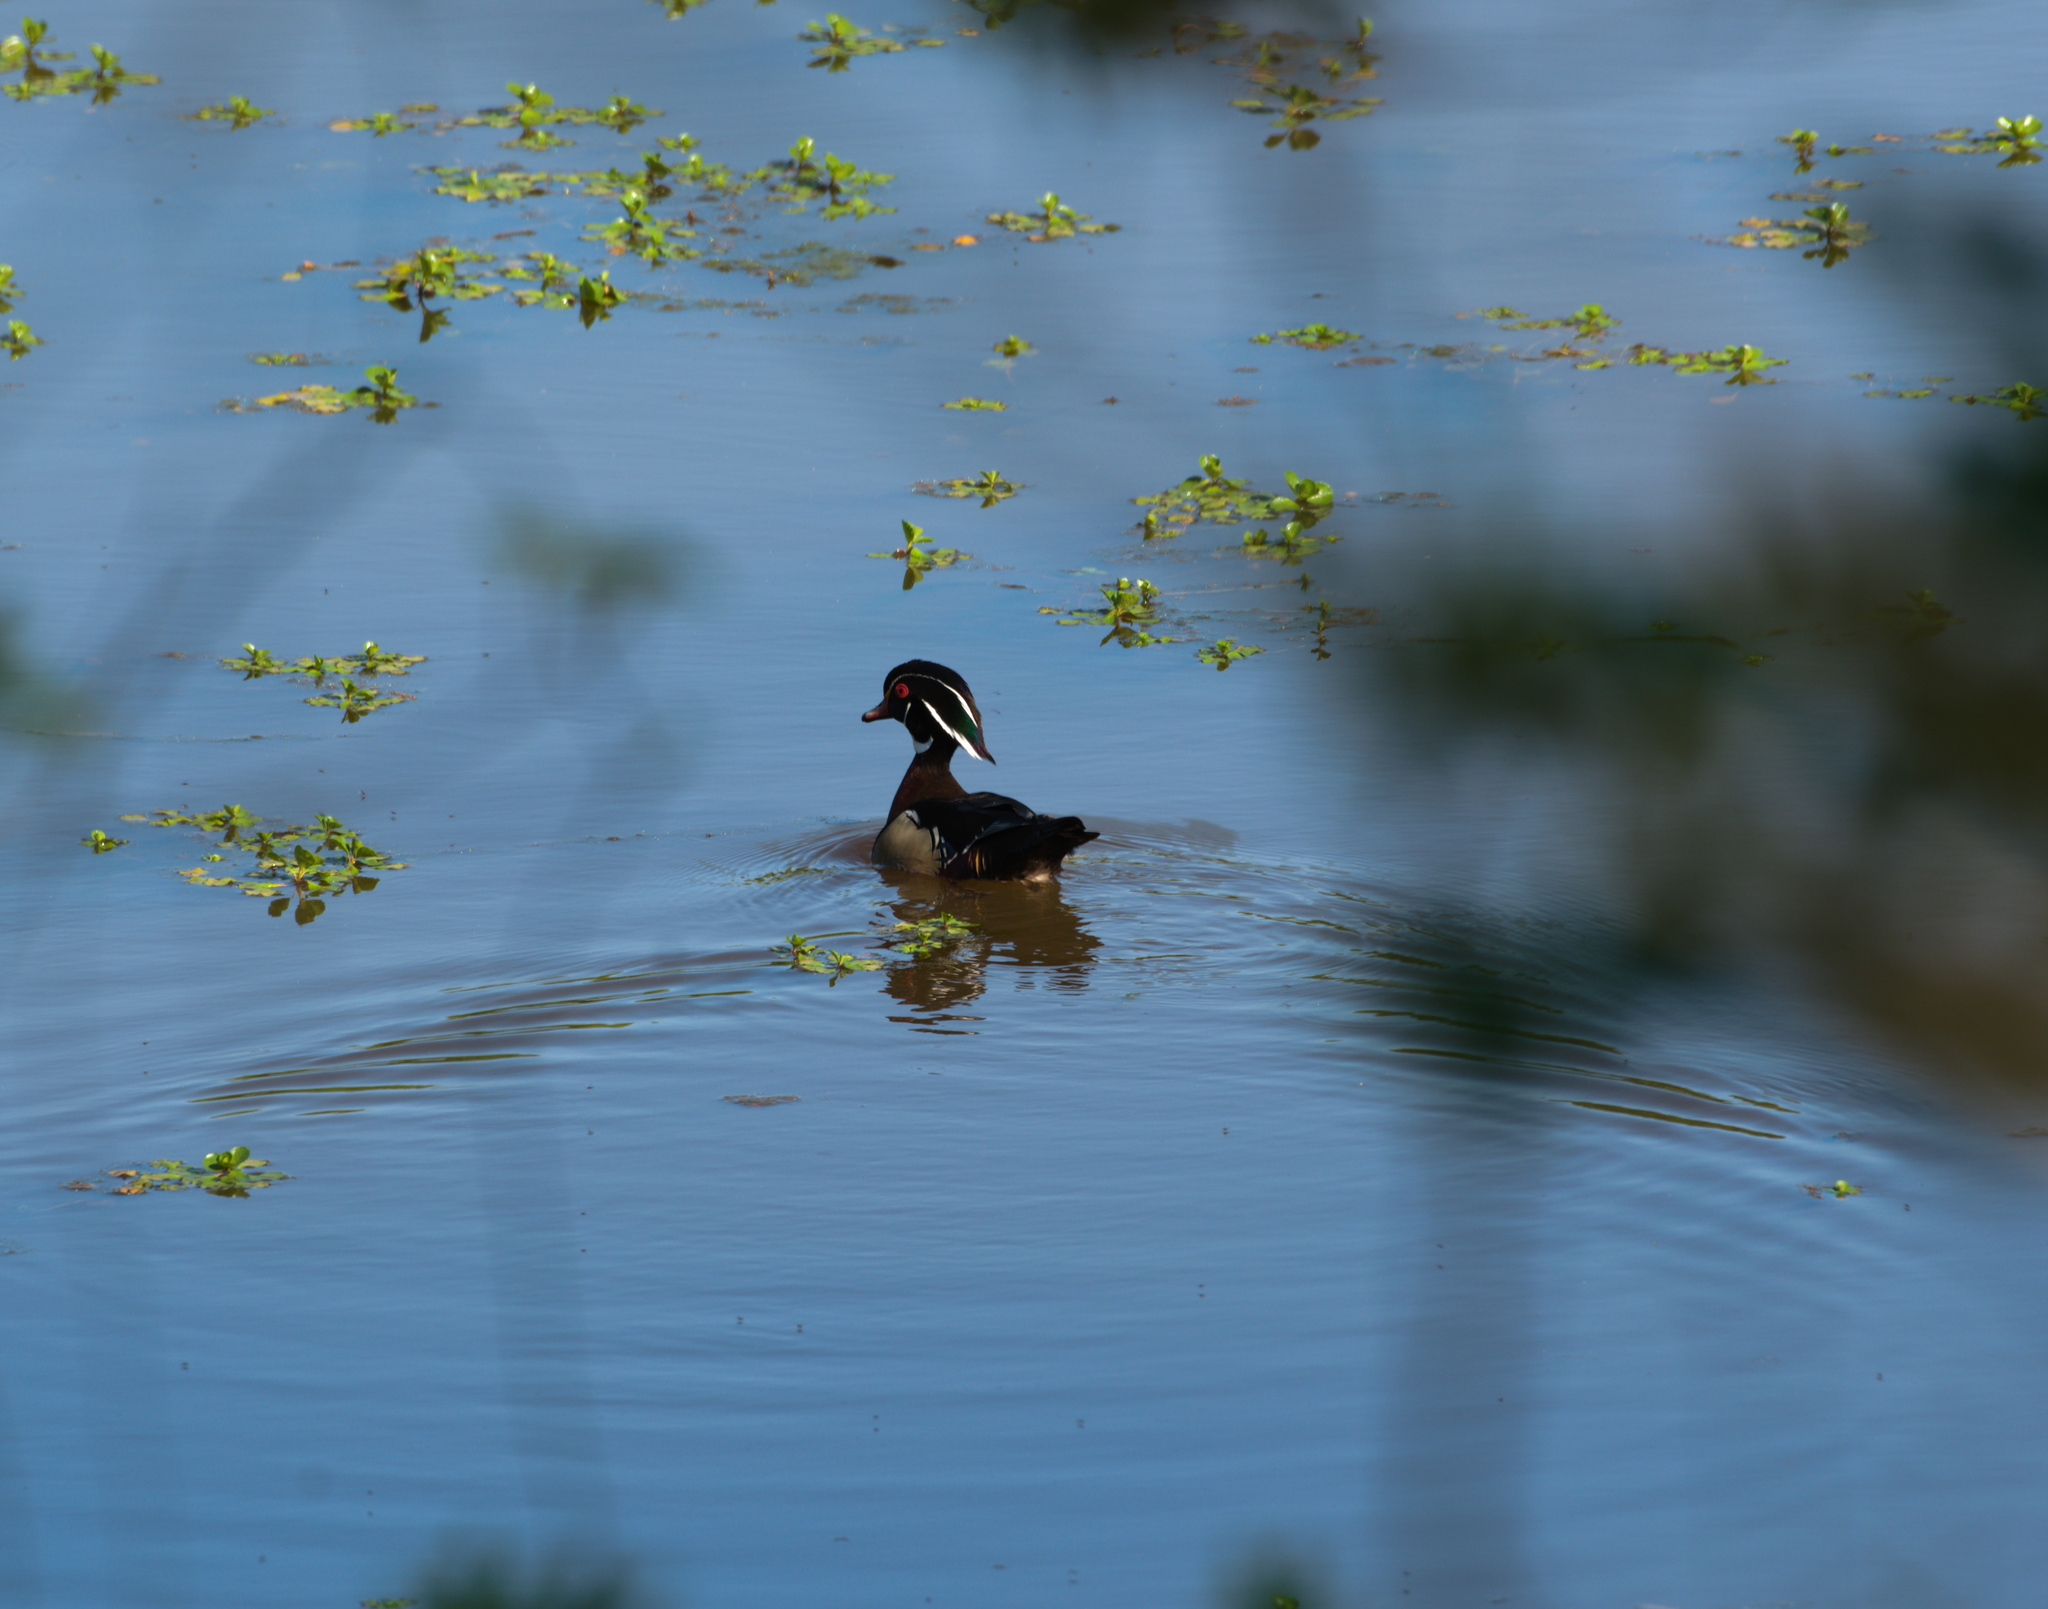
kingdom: Animalia
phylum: Chordata
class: Aves
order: Anseriformes
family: Anatidae
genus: Aix
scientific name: Aix sponsa
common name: Wood duck
